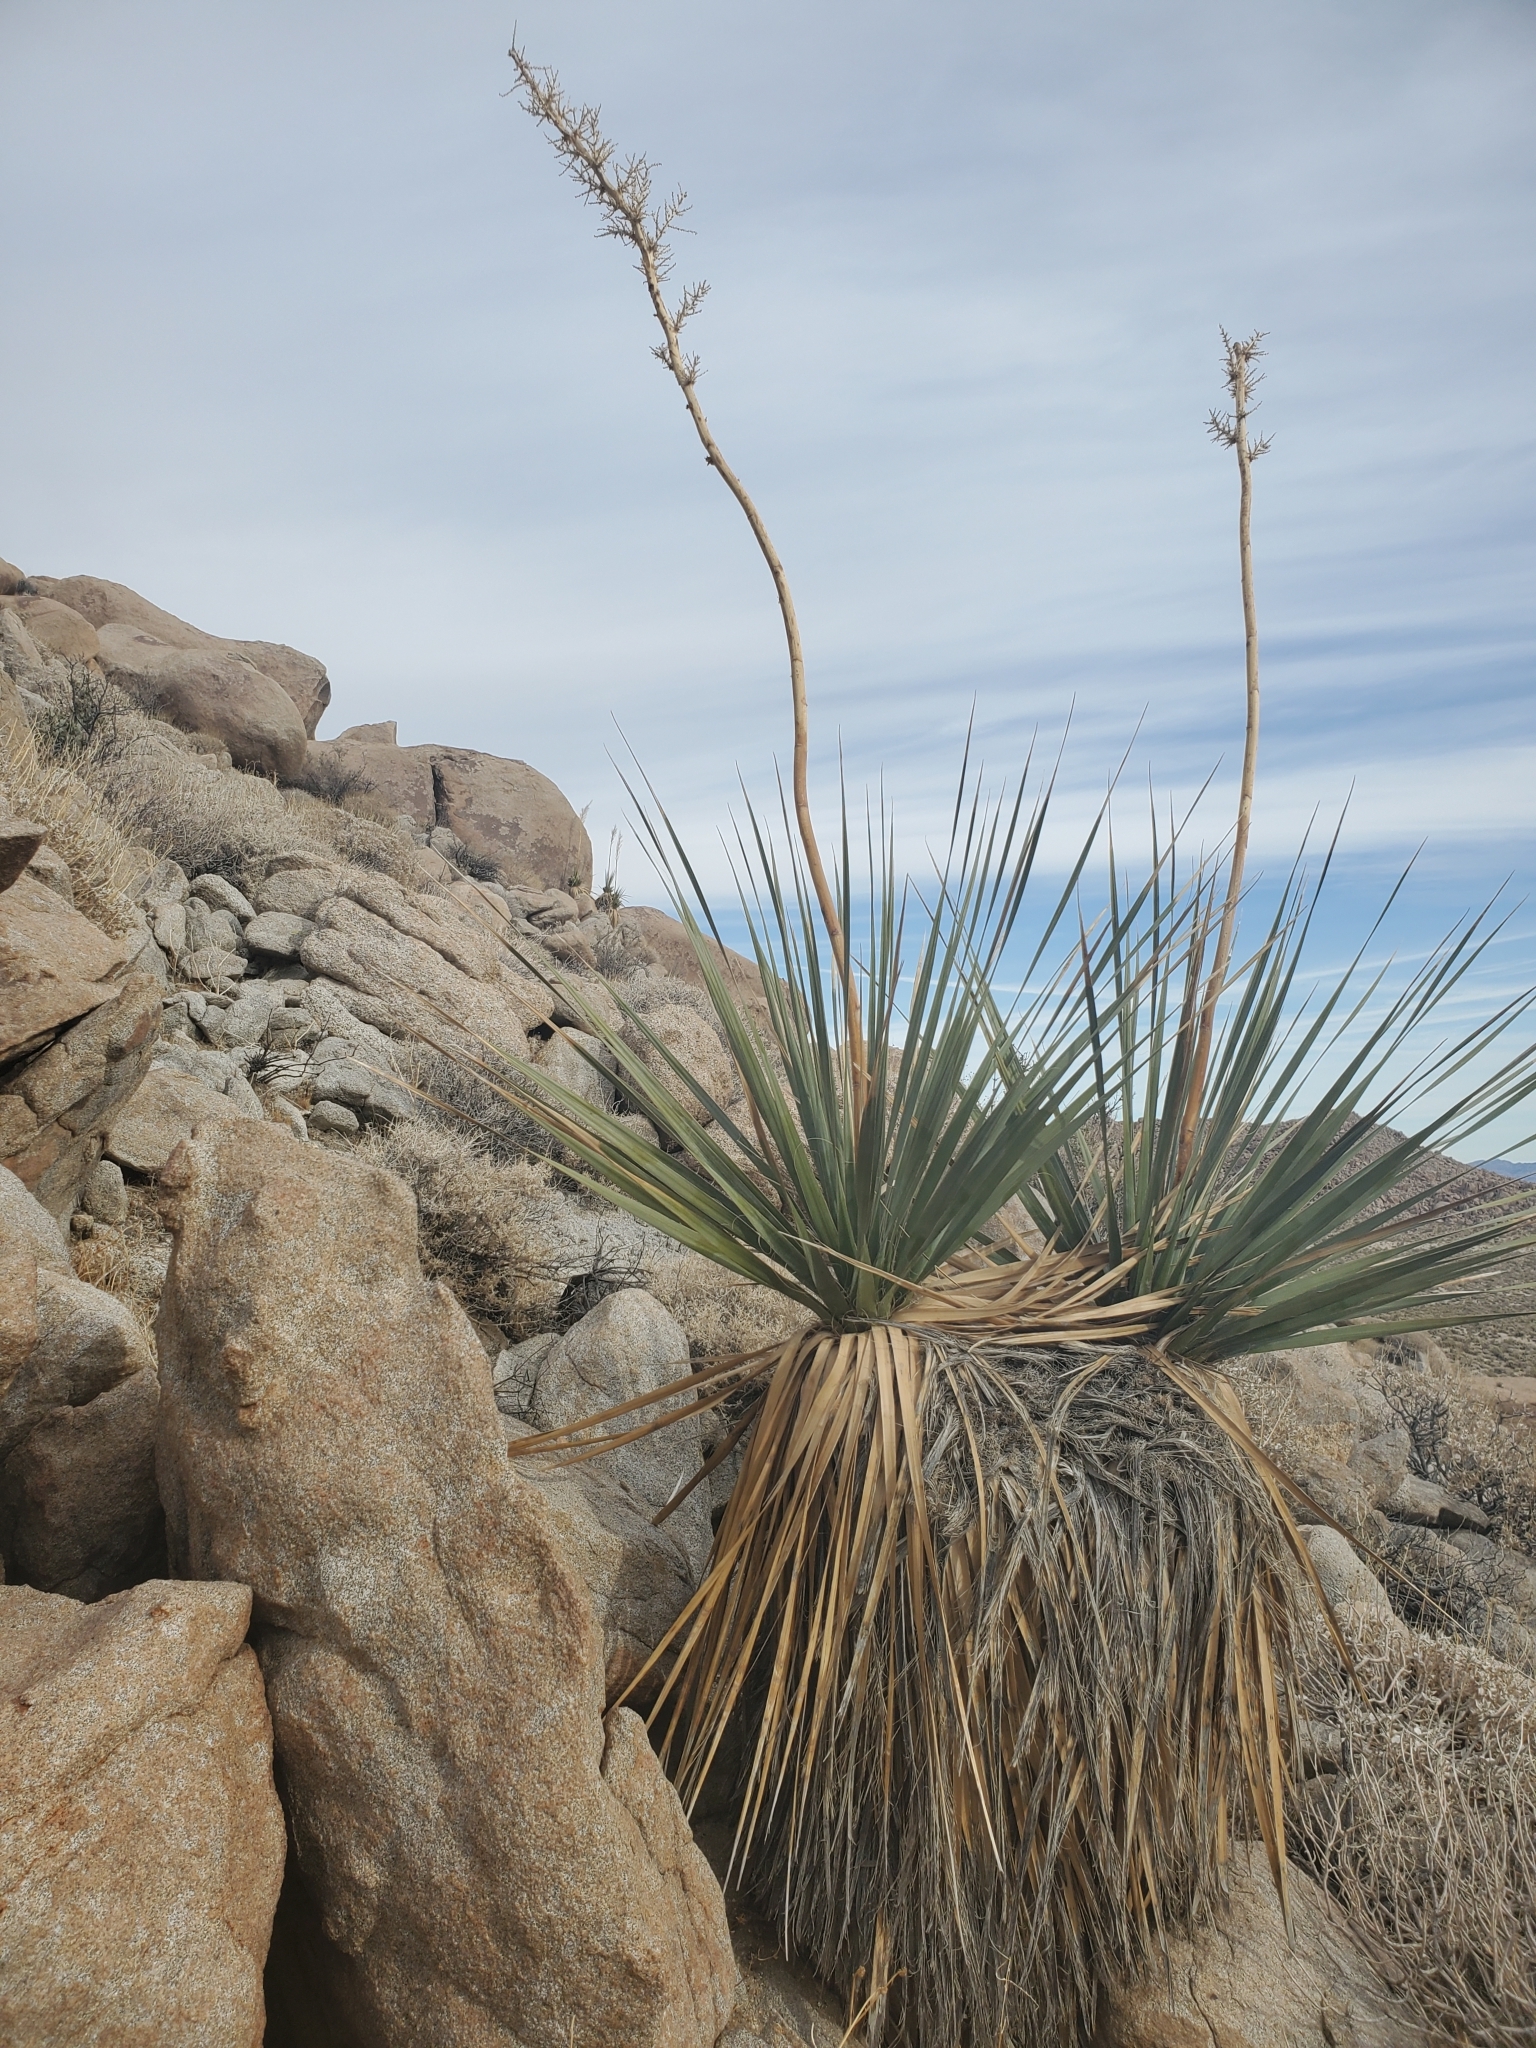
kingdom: Plantae
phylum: Tracheophyta
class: Liliopsida
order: Asparagales
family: Asparagaceae
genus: Nolina
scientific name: Nolina bigelovii
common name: Bigelow bear-grass
